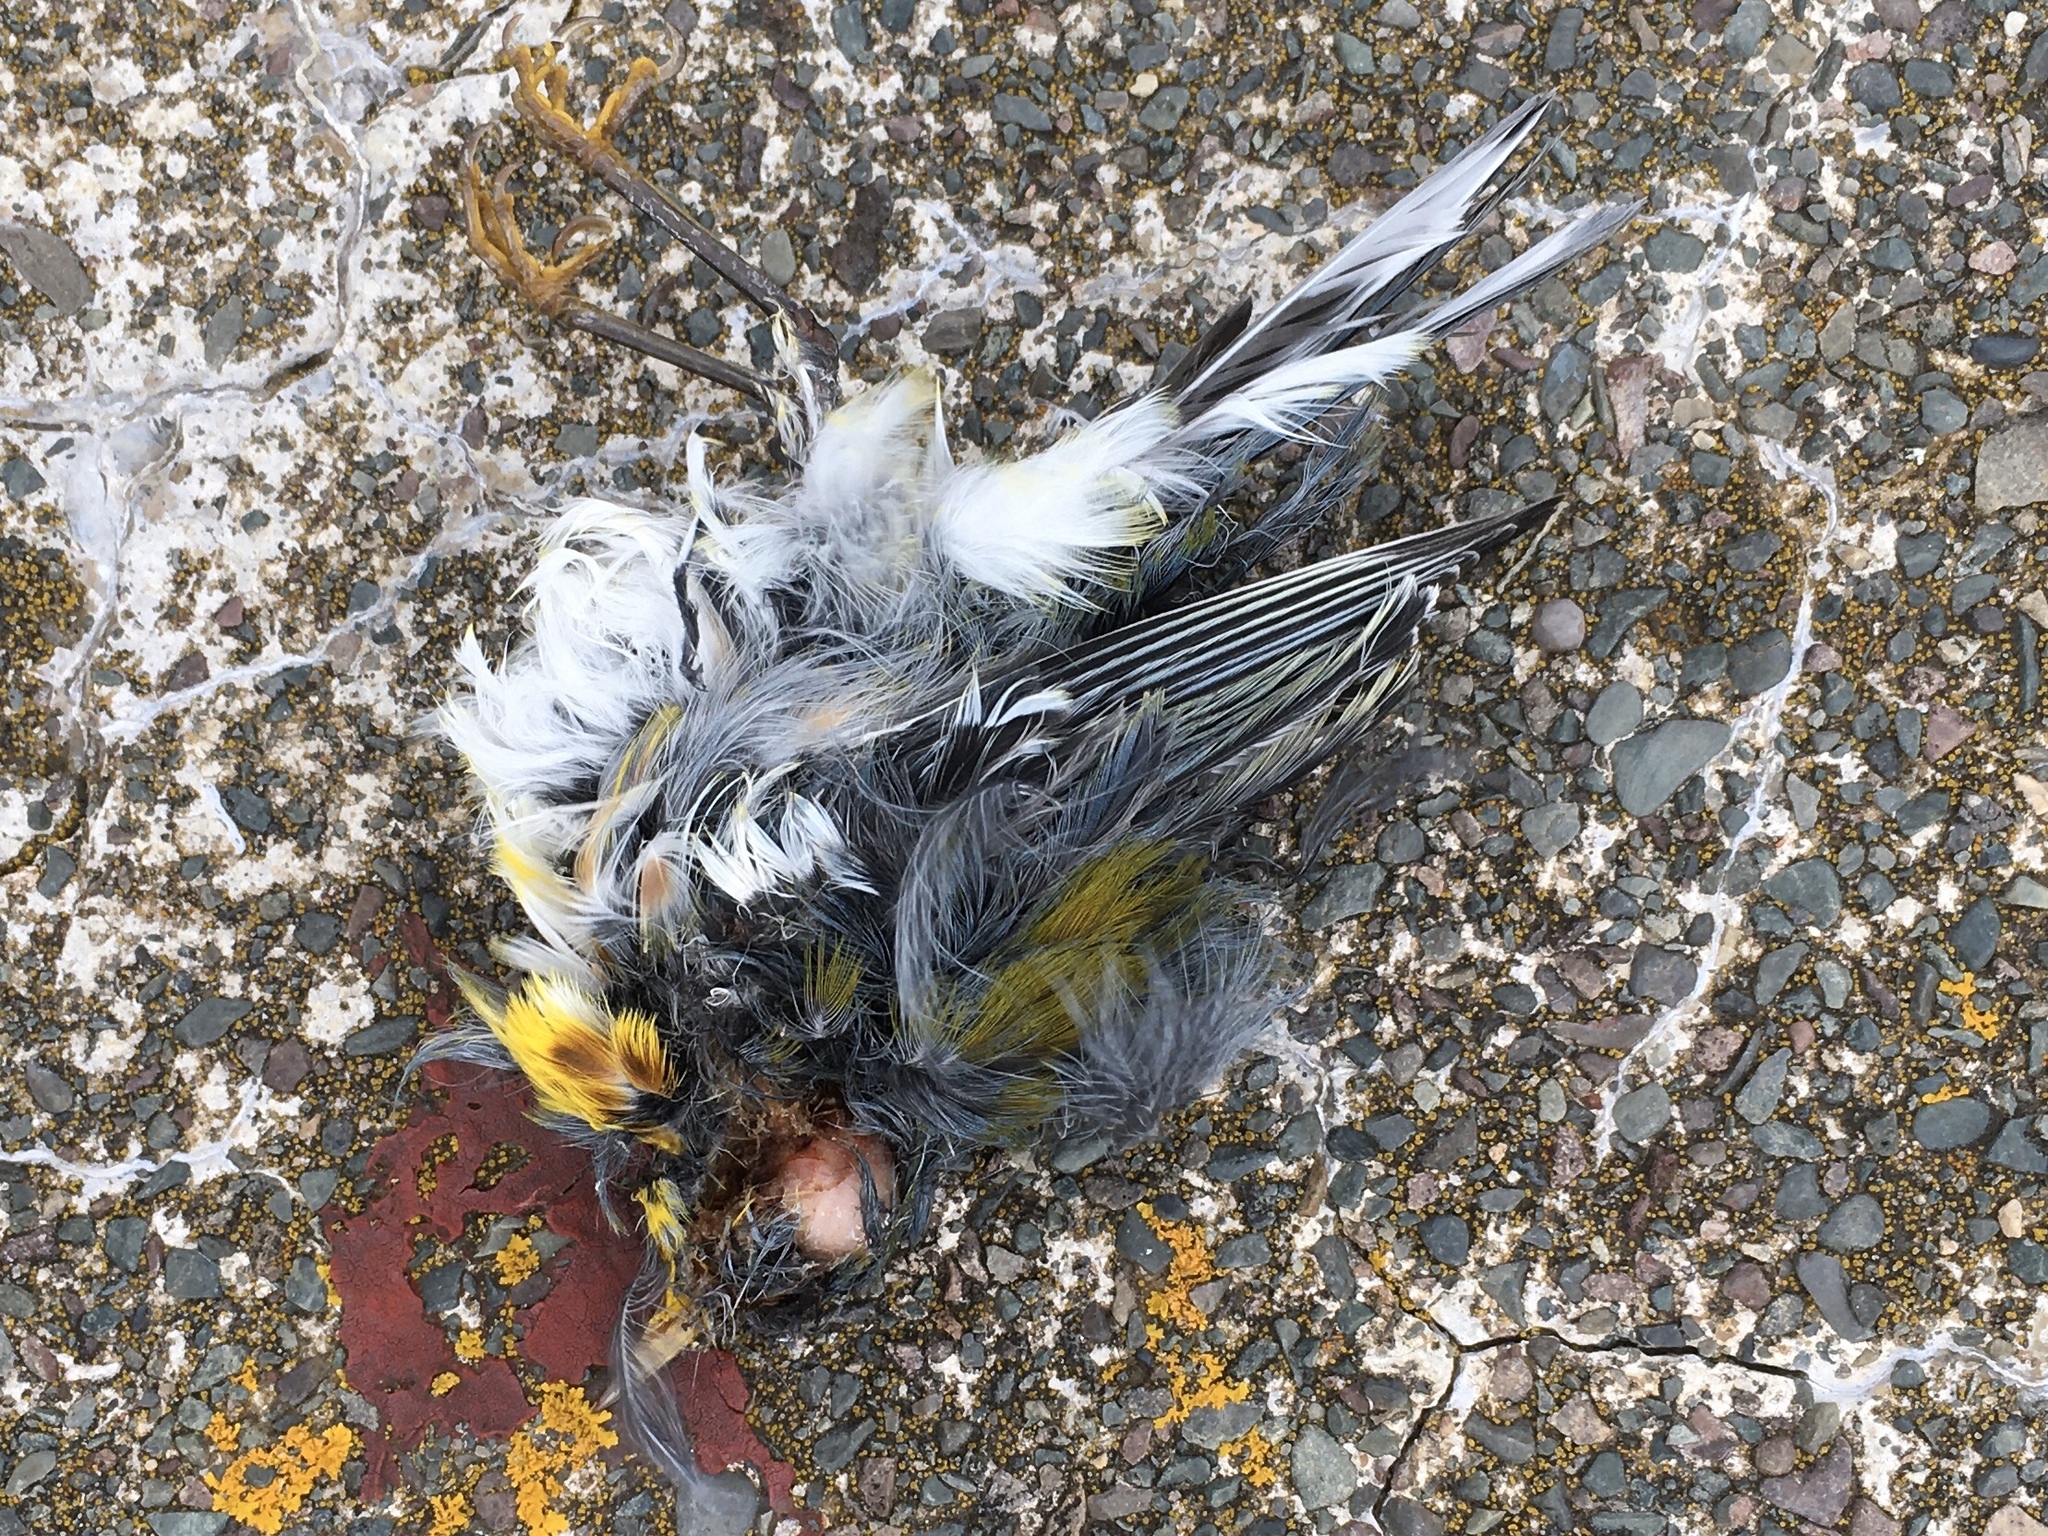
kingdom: Animalia
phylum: Chordata
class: Aves
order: Passeriformes
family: Parulidae
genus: Setophaga
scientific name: Setophaga americana
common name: Northern parula
